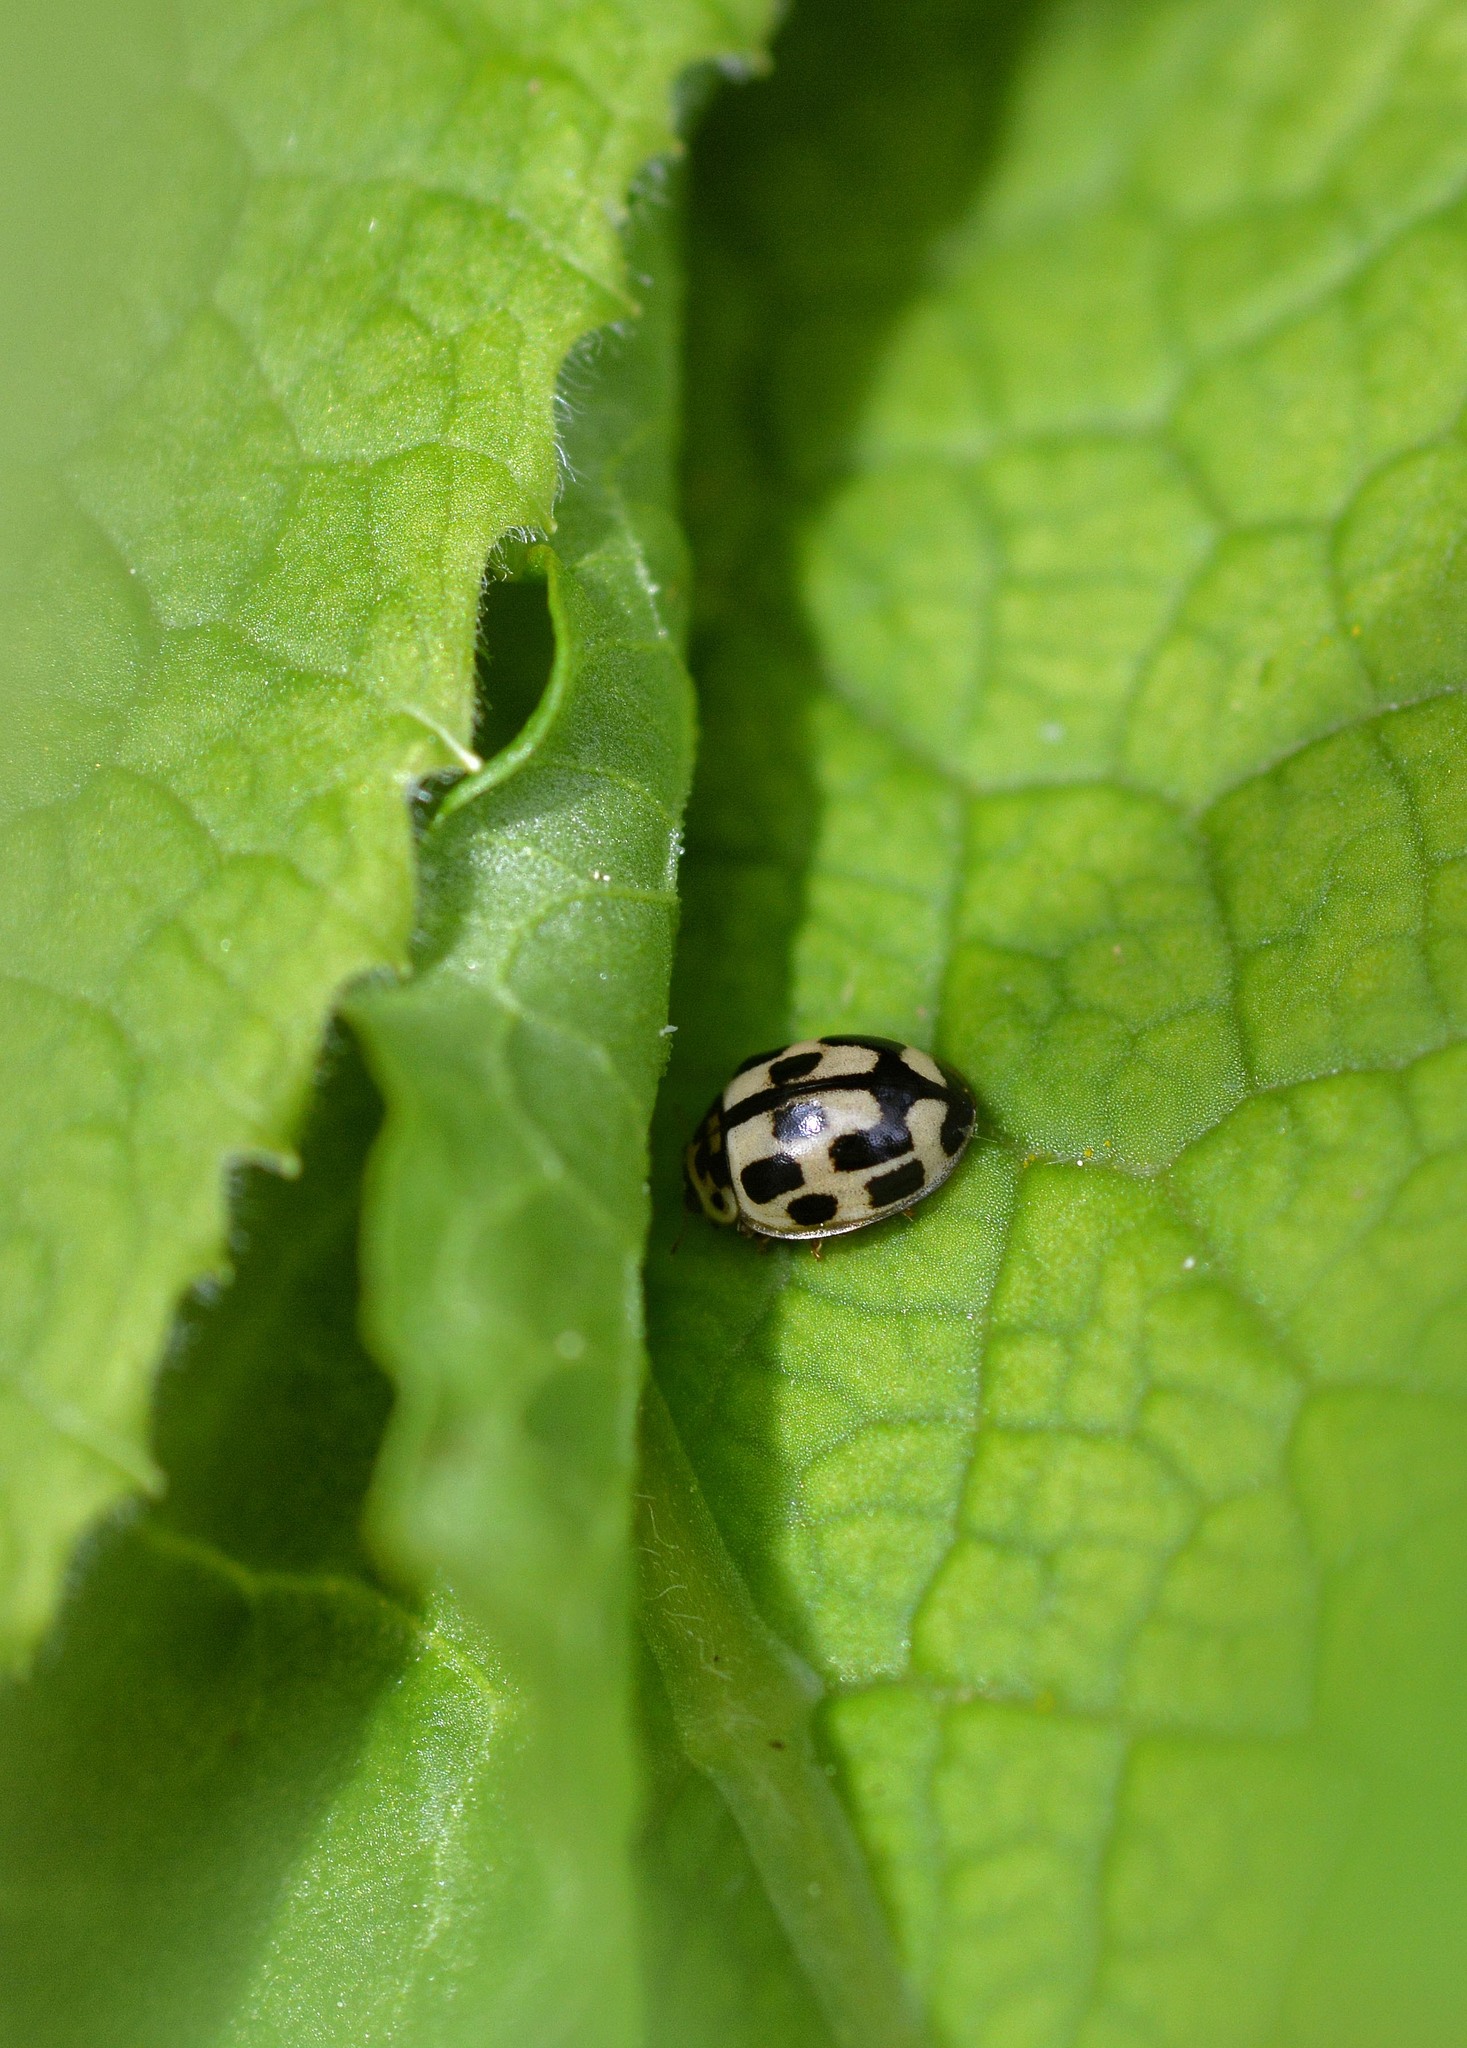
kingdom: Animalia
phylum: Arthropoda
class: Insecta
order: Coleoptera
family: Coccinellidae
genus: Propylaea
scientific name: Propylaea quatuordecimpunctata
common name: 14-spotted ladybird beetle
